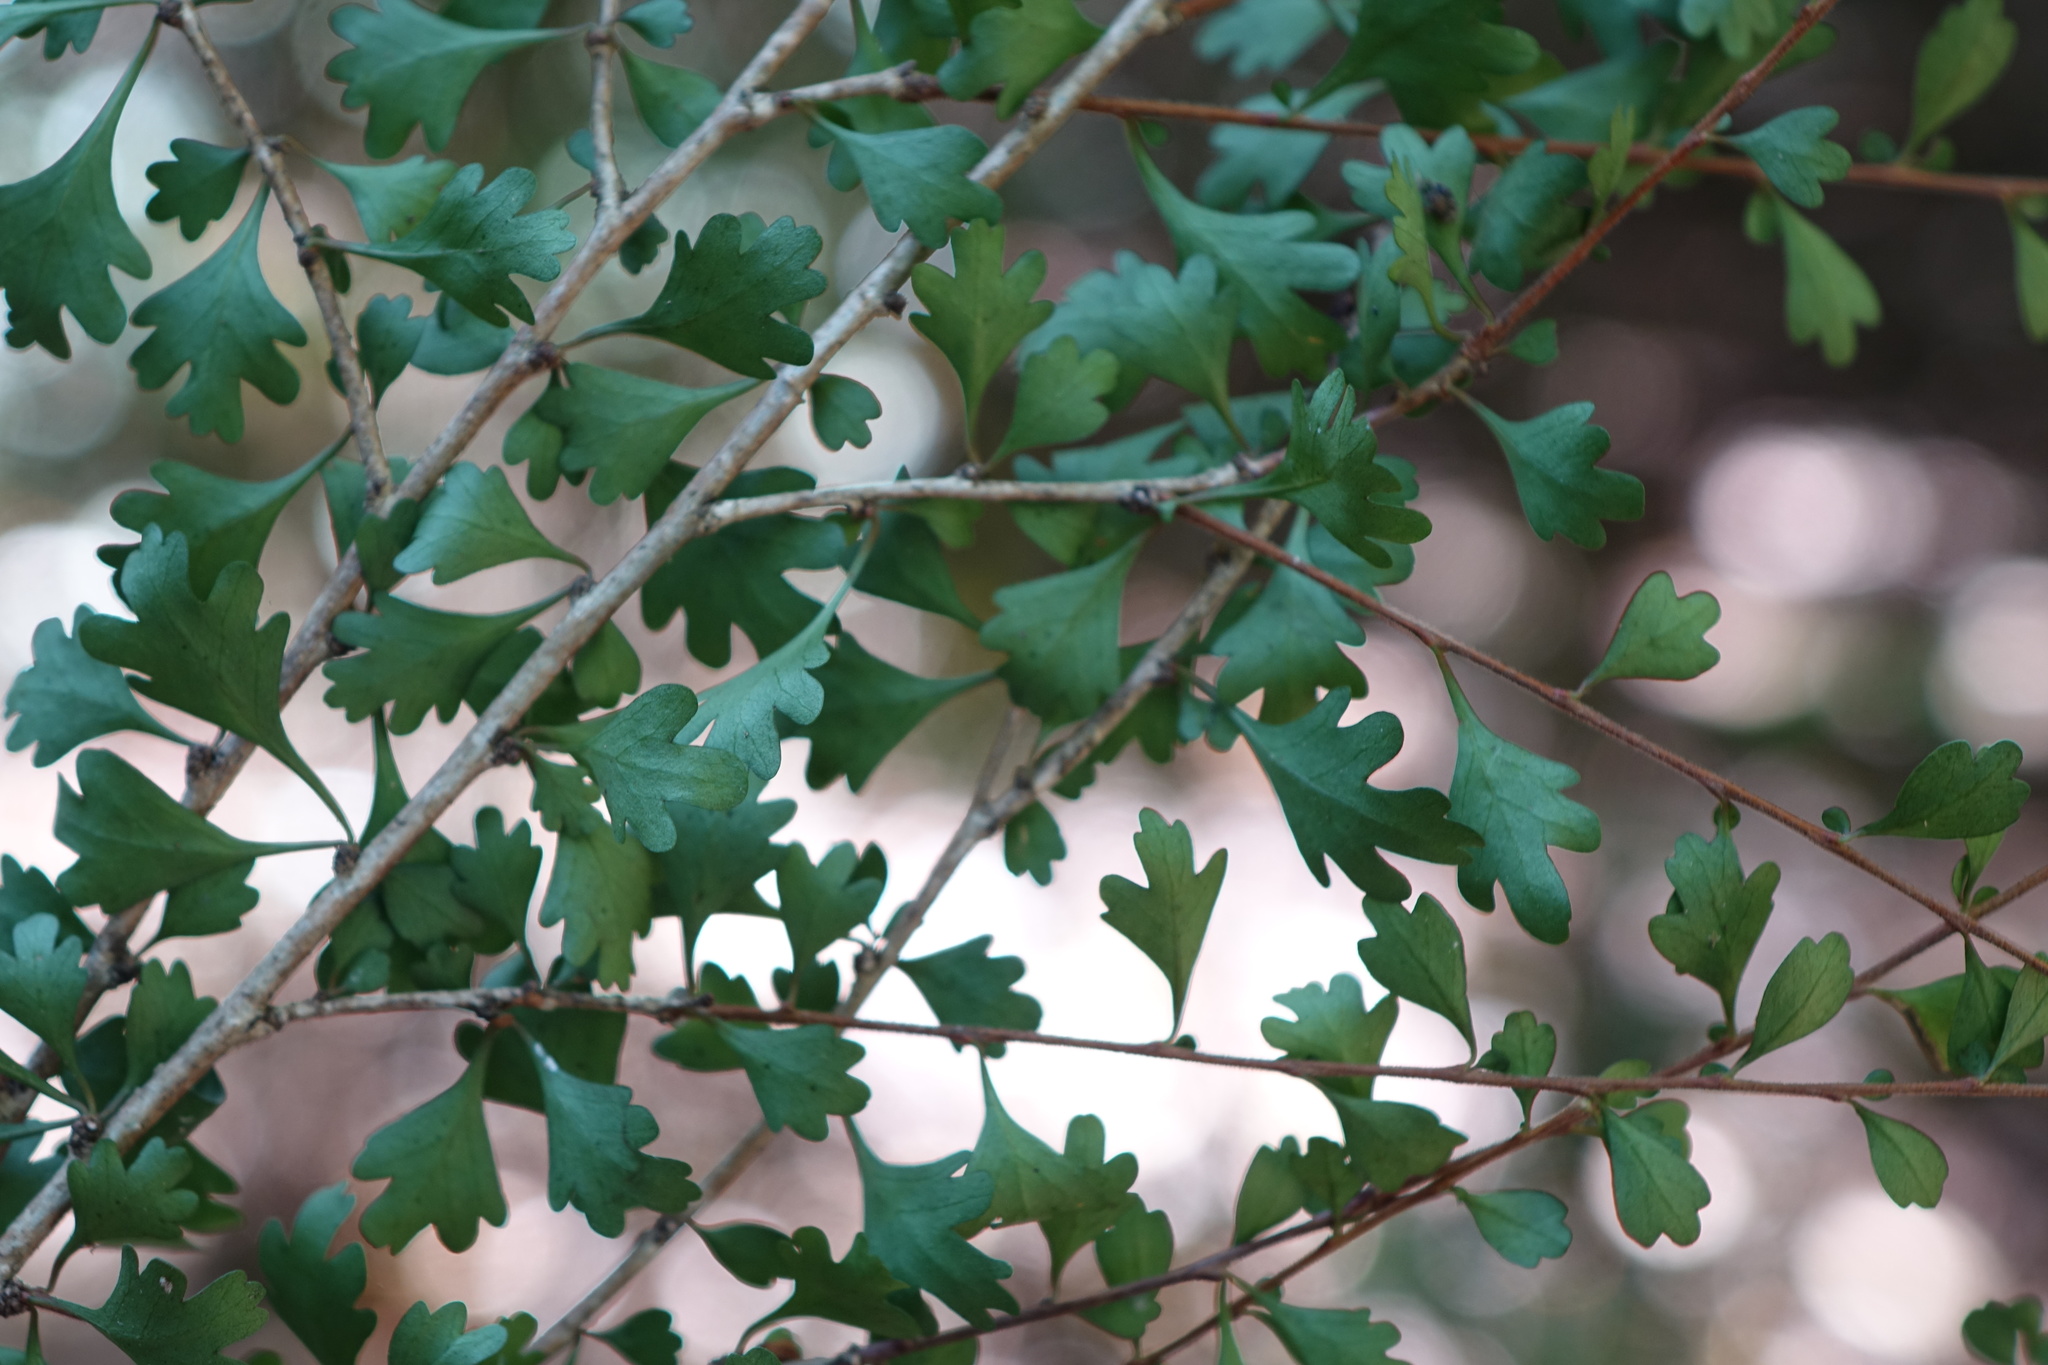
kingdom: Plantae
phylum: Tracheophyta
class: Magnoliopsida
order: Sapindales
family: Meliaceae
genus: Turraea
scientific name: Turraea obovata
